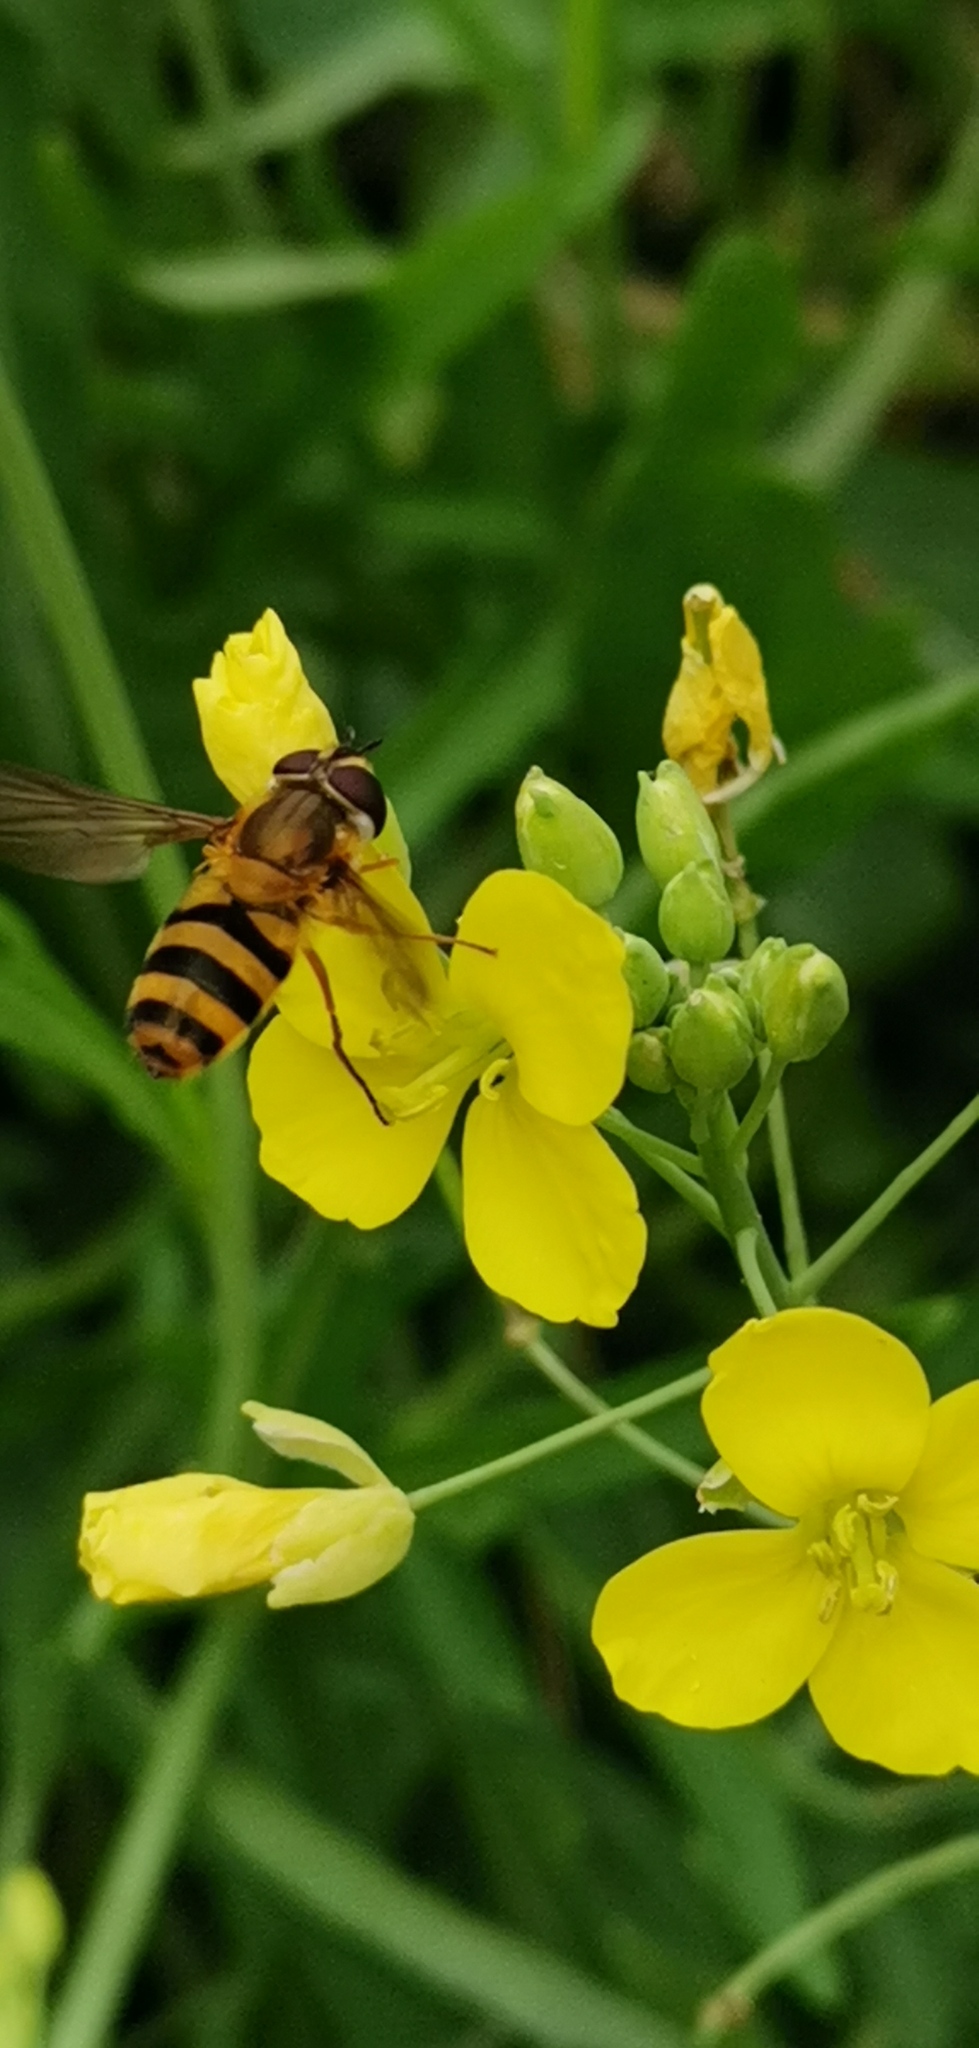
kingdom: Animalia
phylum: Arthropoda
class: Insecta
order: Diptera
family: Syrphidae
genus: Epistrophe
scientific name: Epistrophe grossulariae
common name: Black-horned smoothtail
